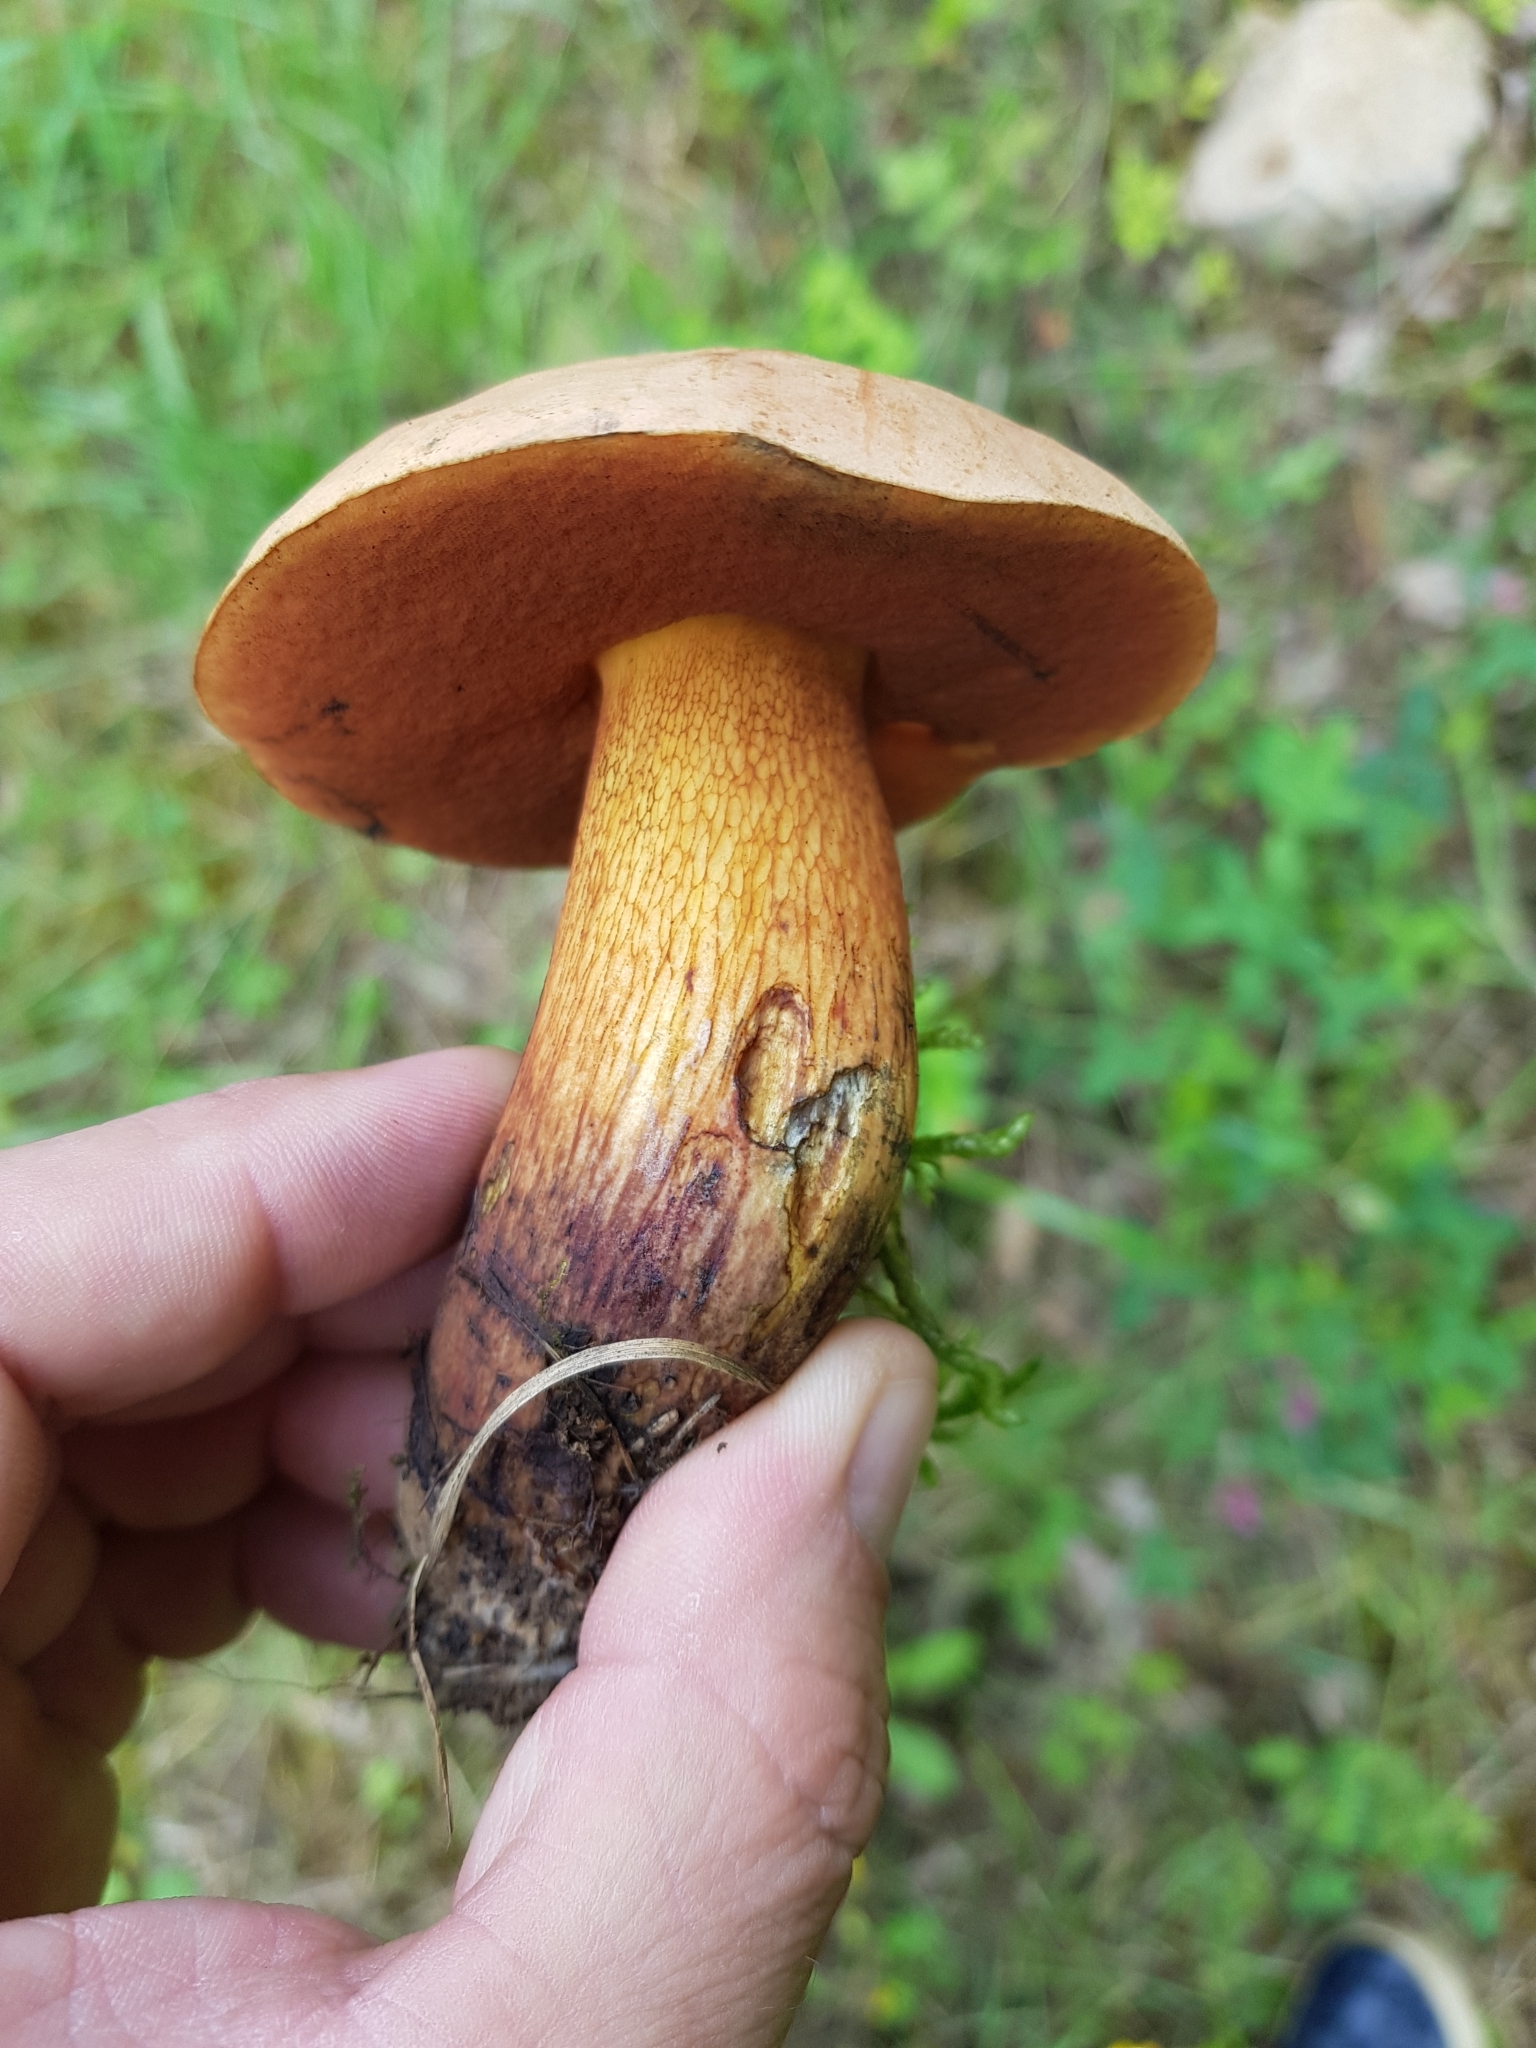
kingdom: Fungi
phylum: Basidiomycota
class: Agaricomycetes
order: Boletales
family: Boletaceae
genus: Suillellus
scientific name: Suillellus luridus
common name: Lurid bolete
